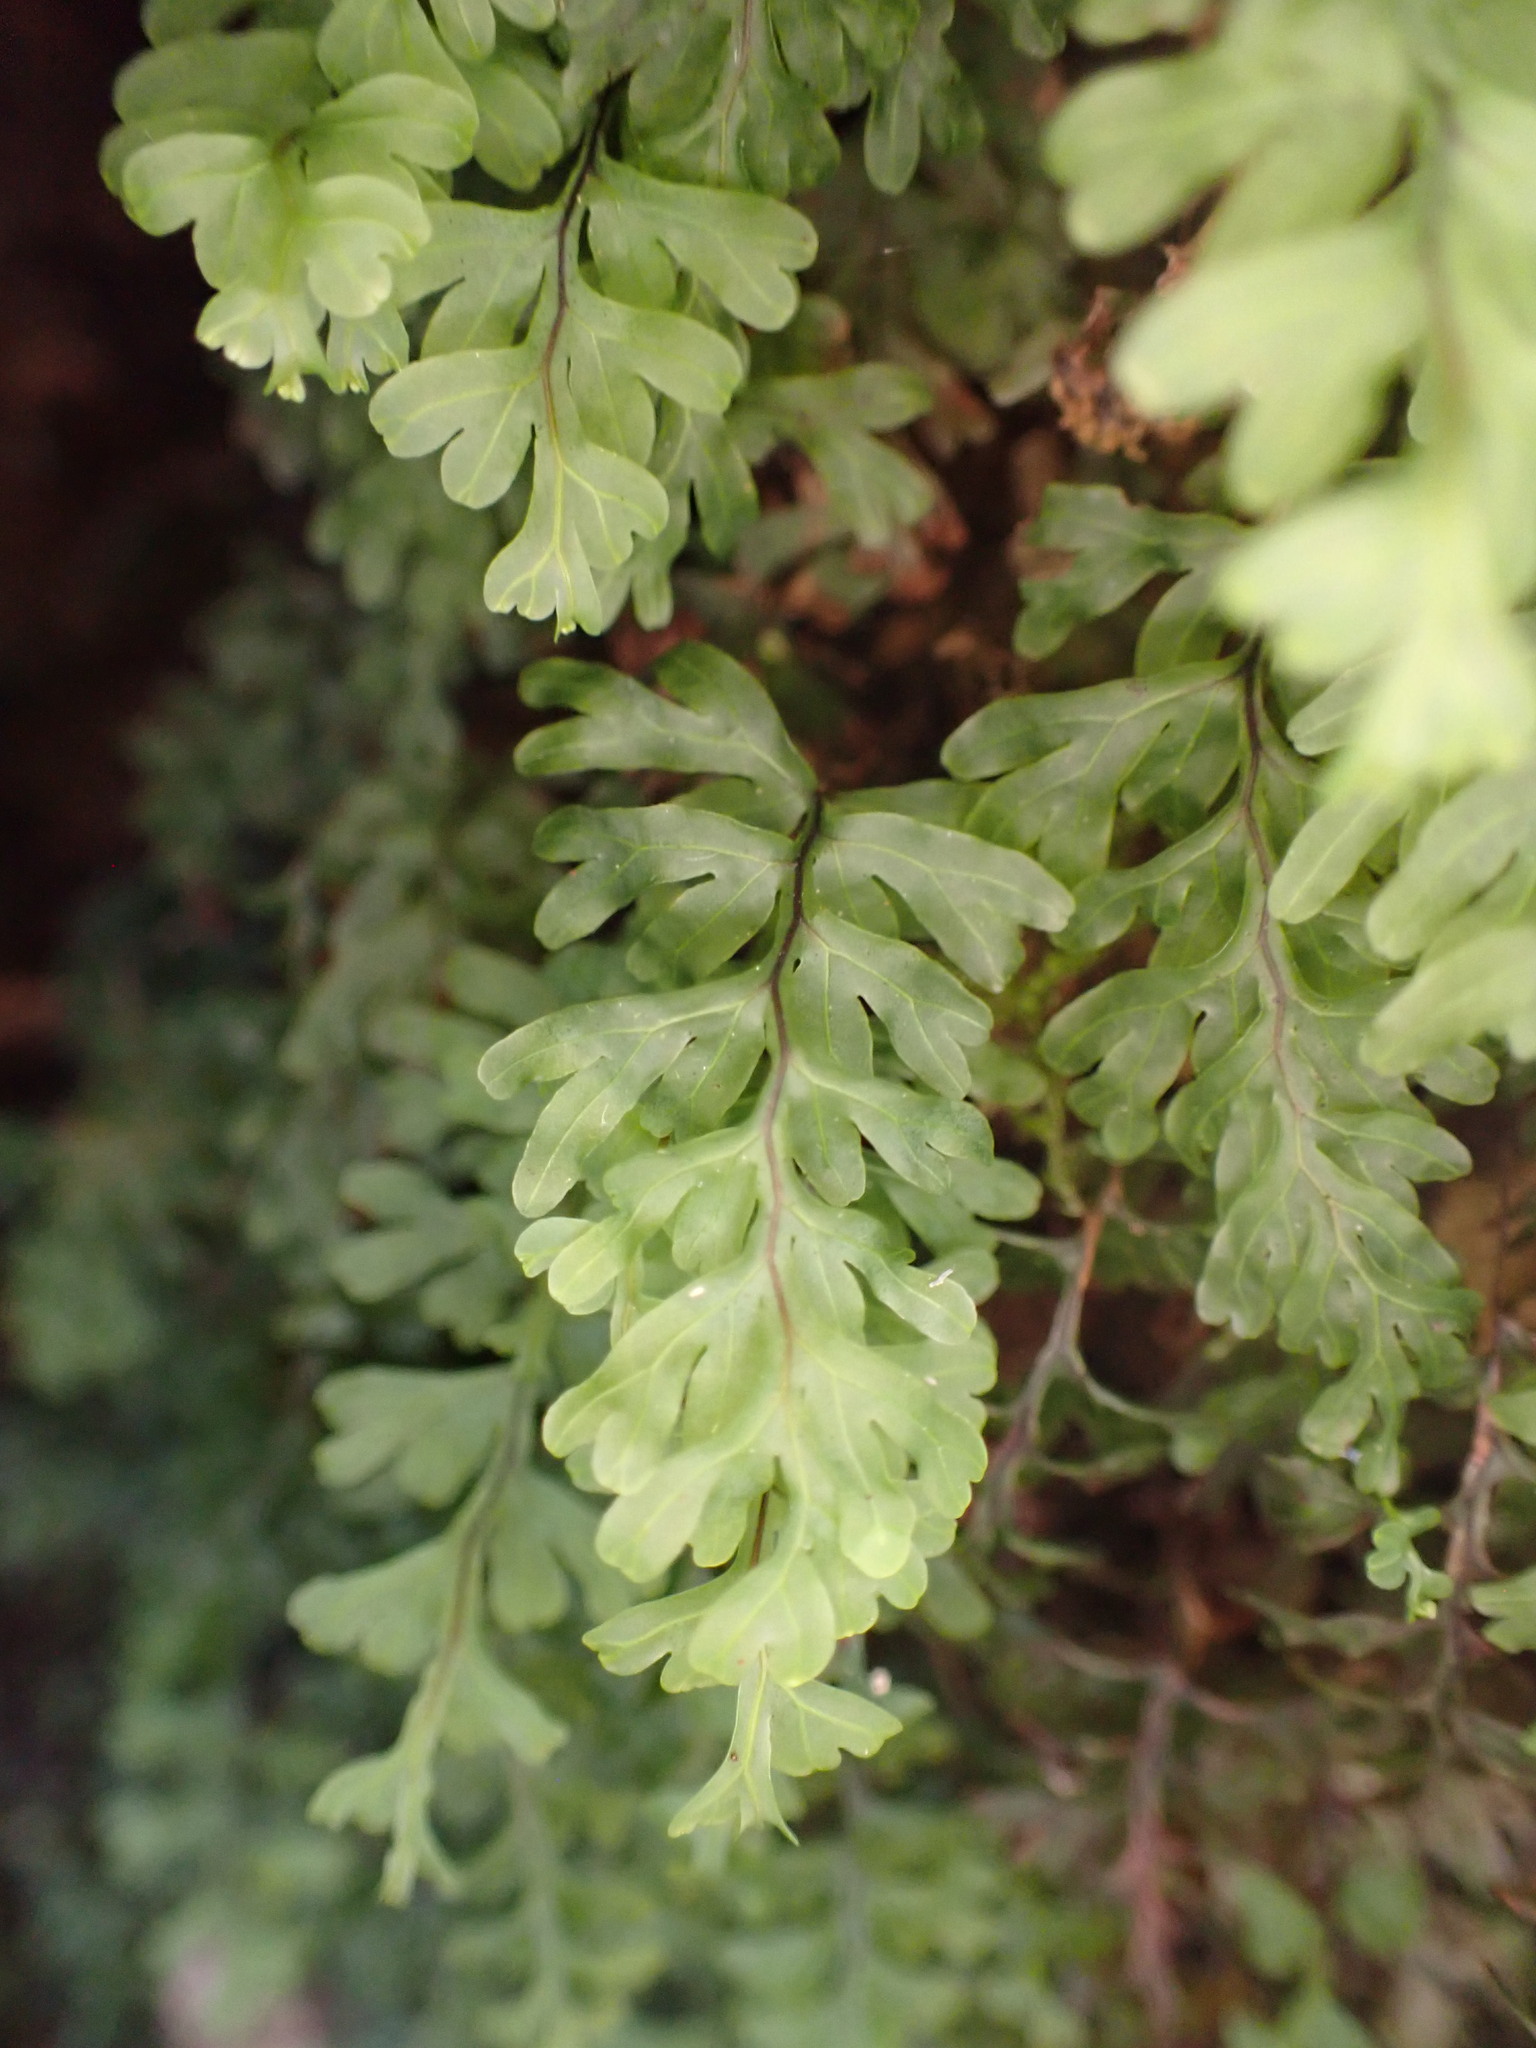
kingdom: Plantae
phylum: Tracheophyta
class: Polypodiopsida
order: Hymenophyllales
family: Hymenophyllaceae
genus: Hymenophyllum
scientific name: Hymenophyllum rarum
